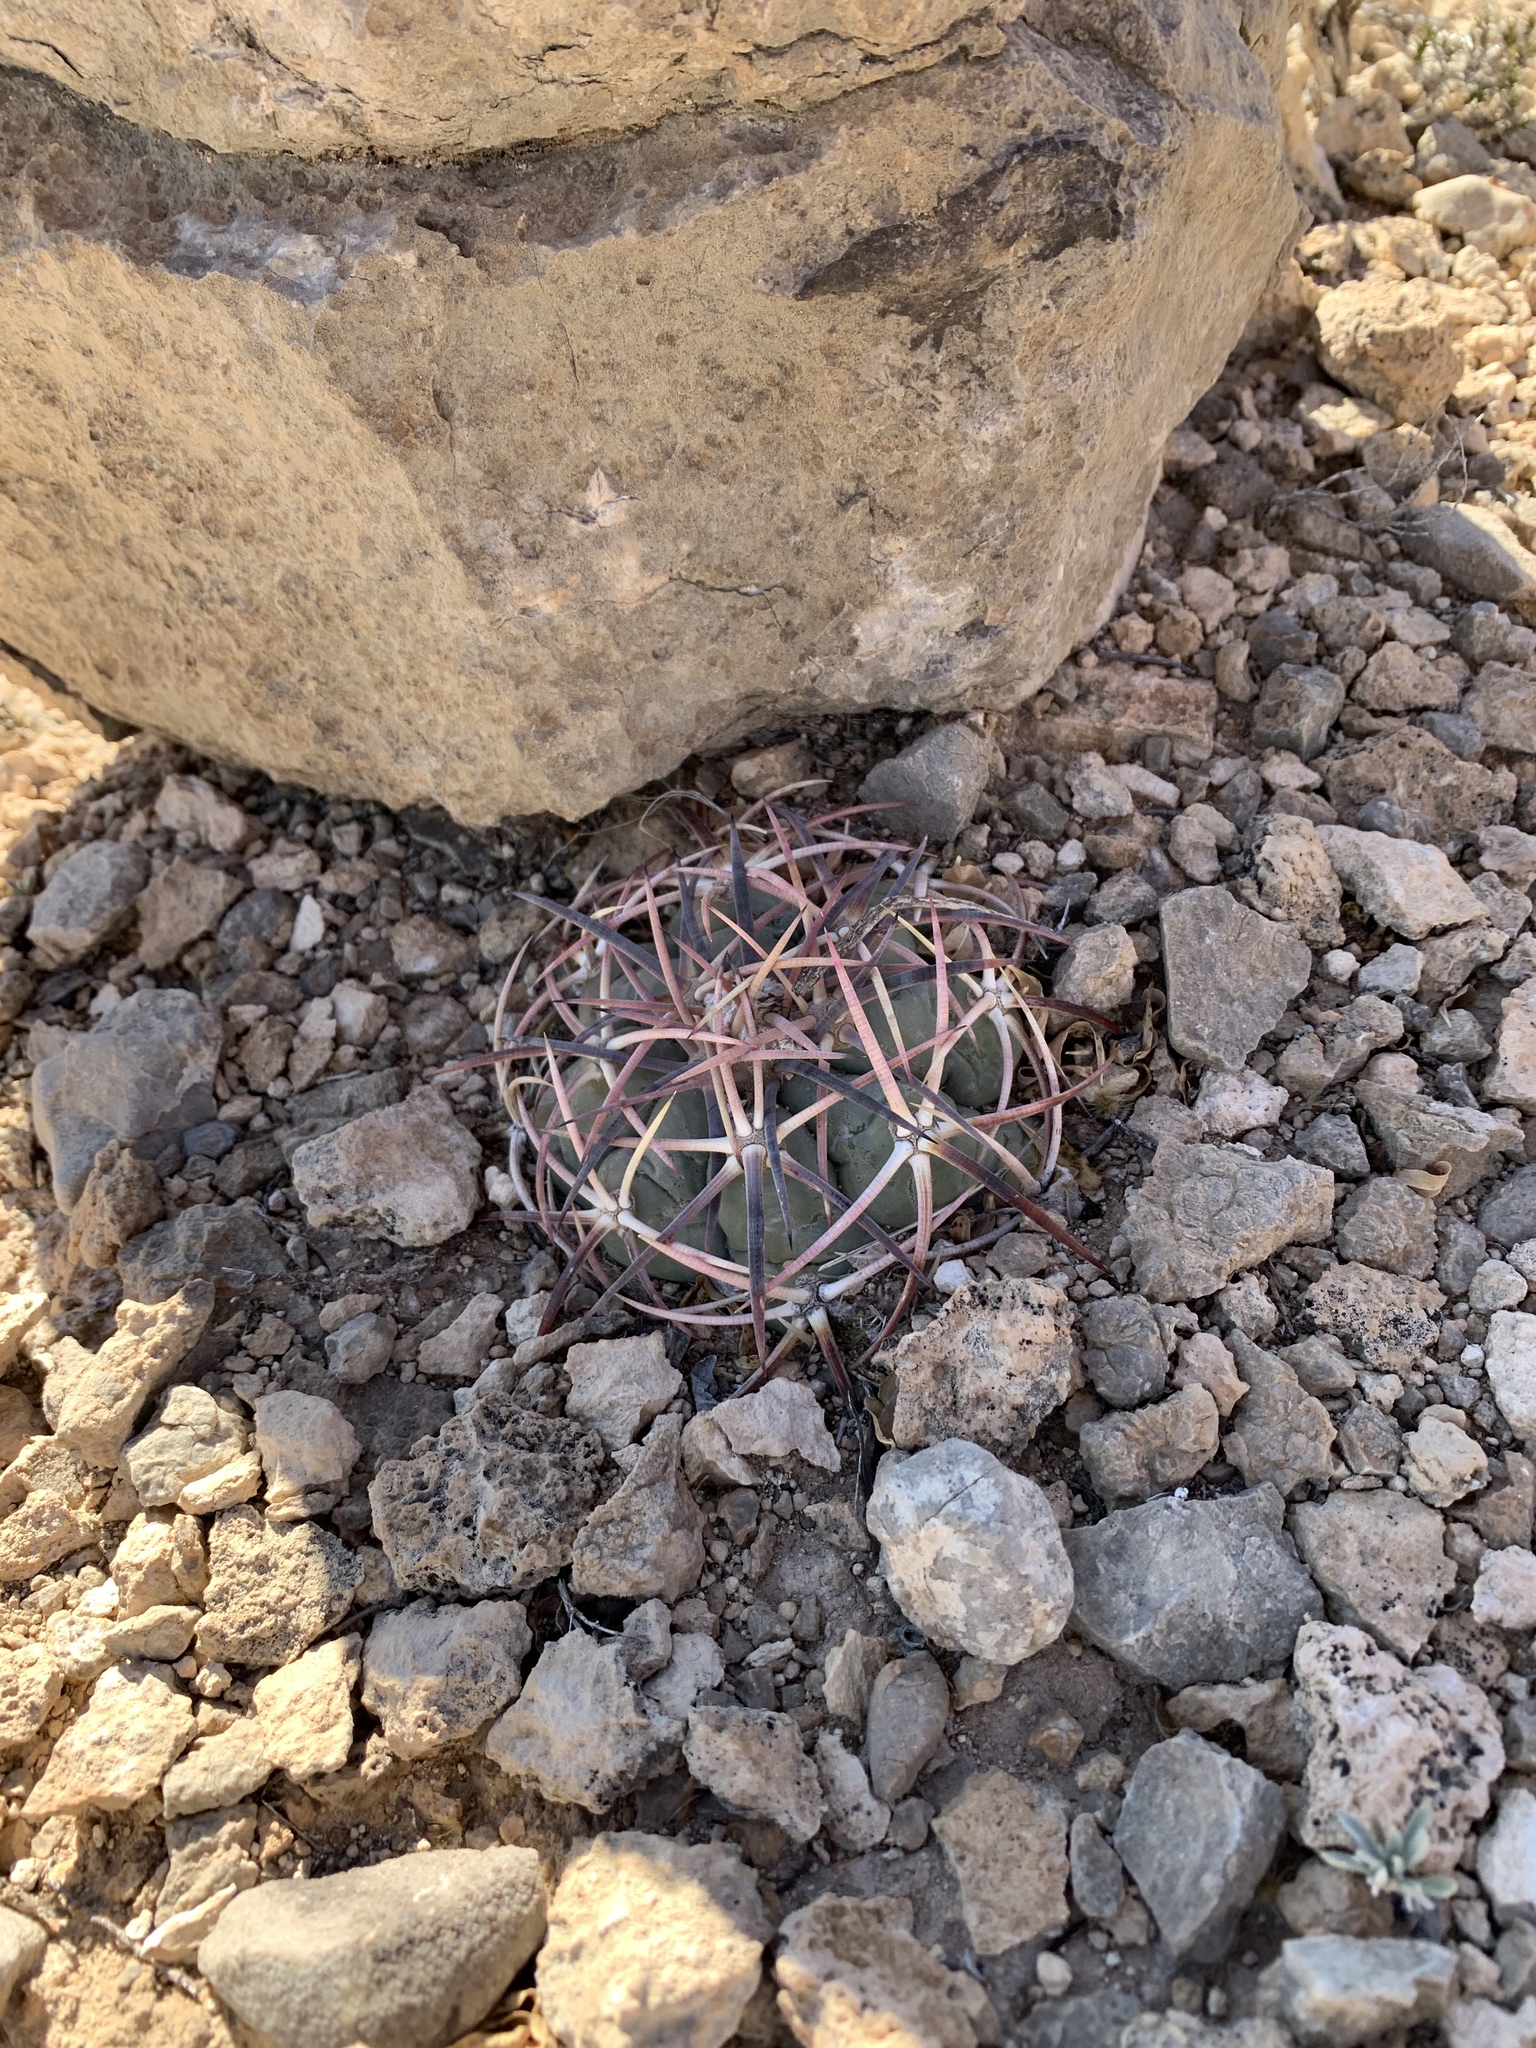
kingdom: Plantae
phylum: Tracheophyta
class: Magnoliopsida
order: Caryophyllales
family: Cactaceae
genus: Echinocactus
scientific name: Echinocactus horizonthalonius
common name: Devilshead
